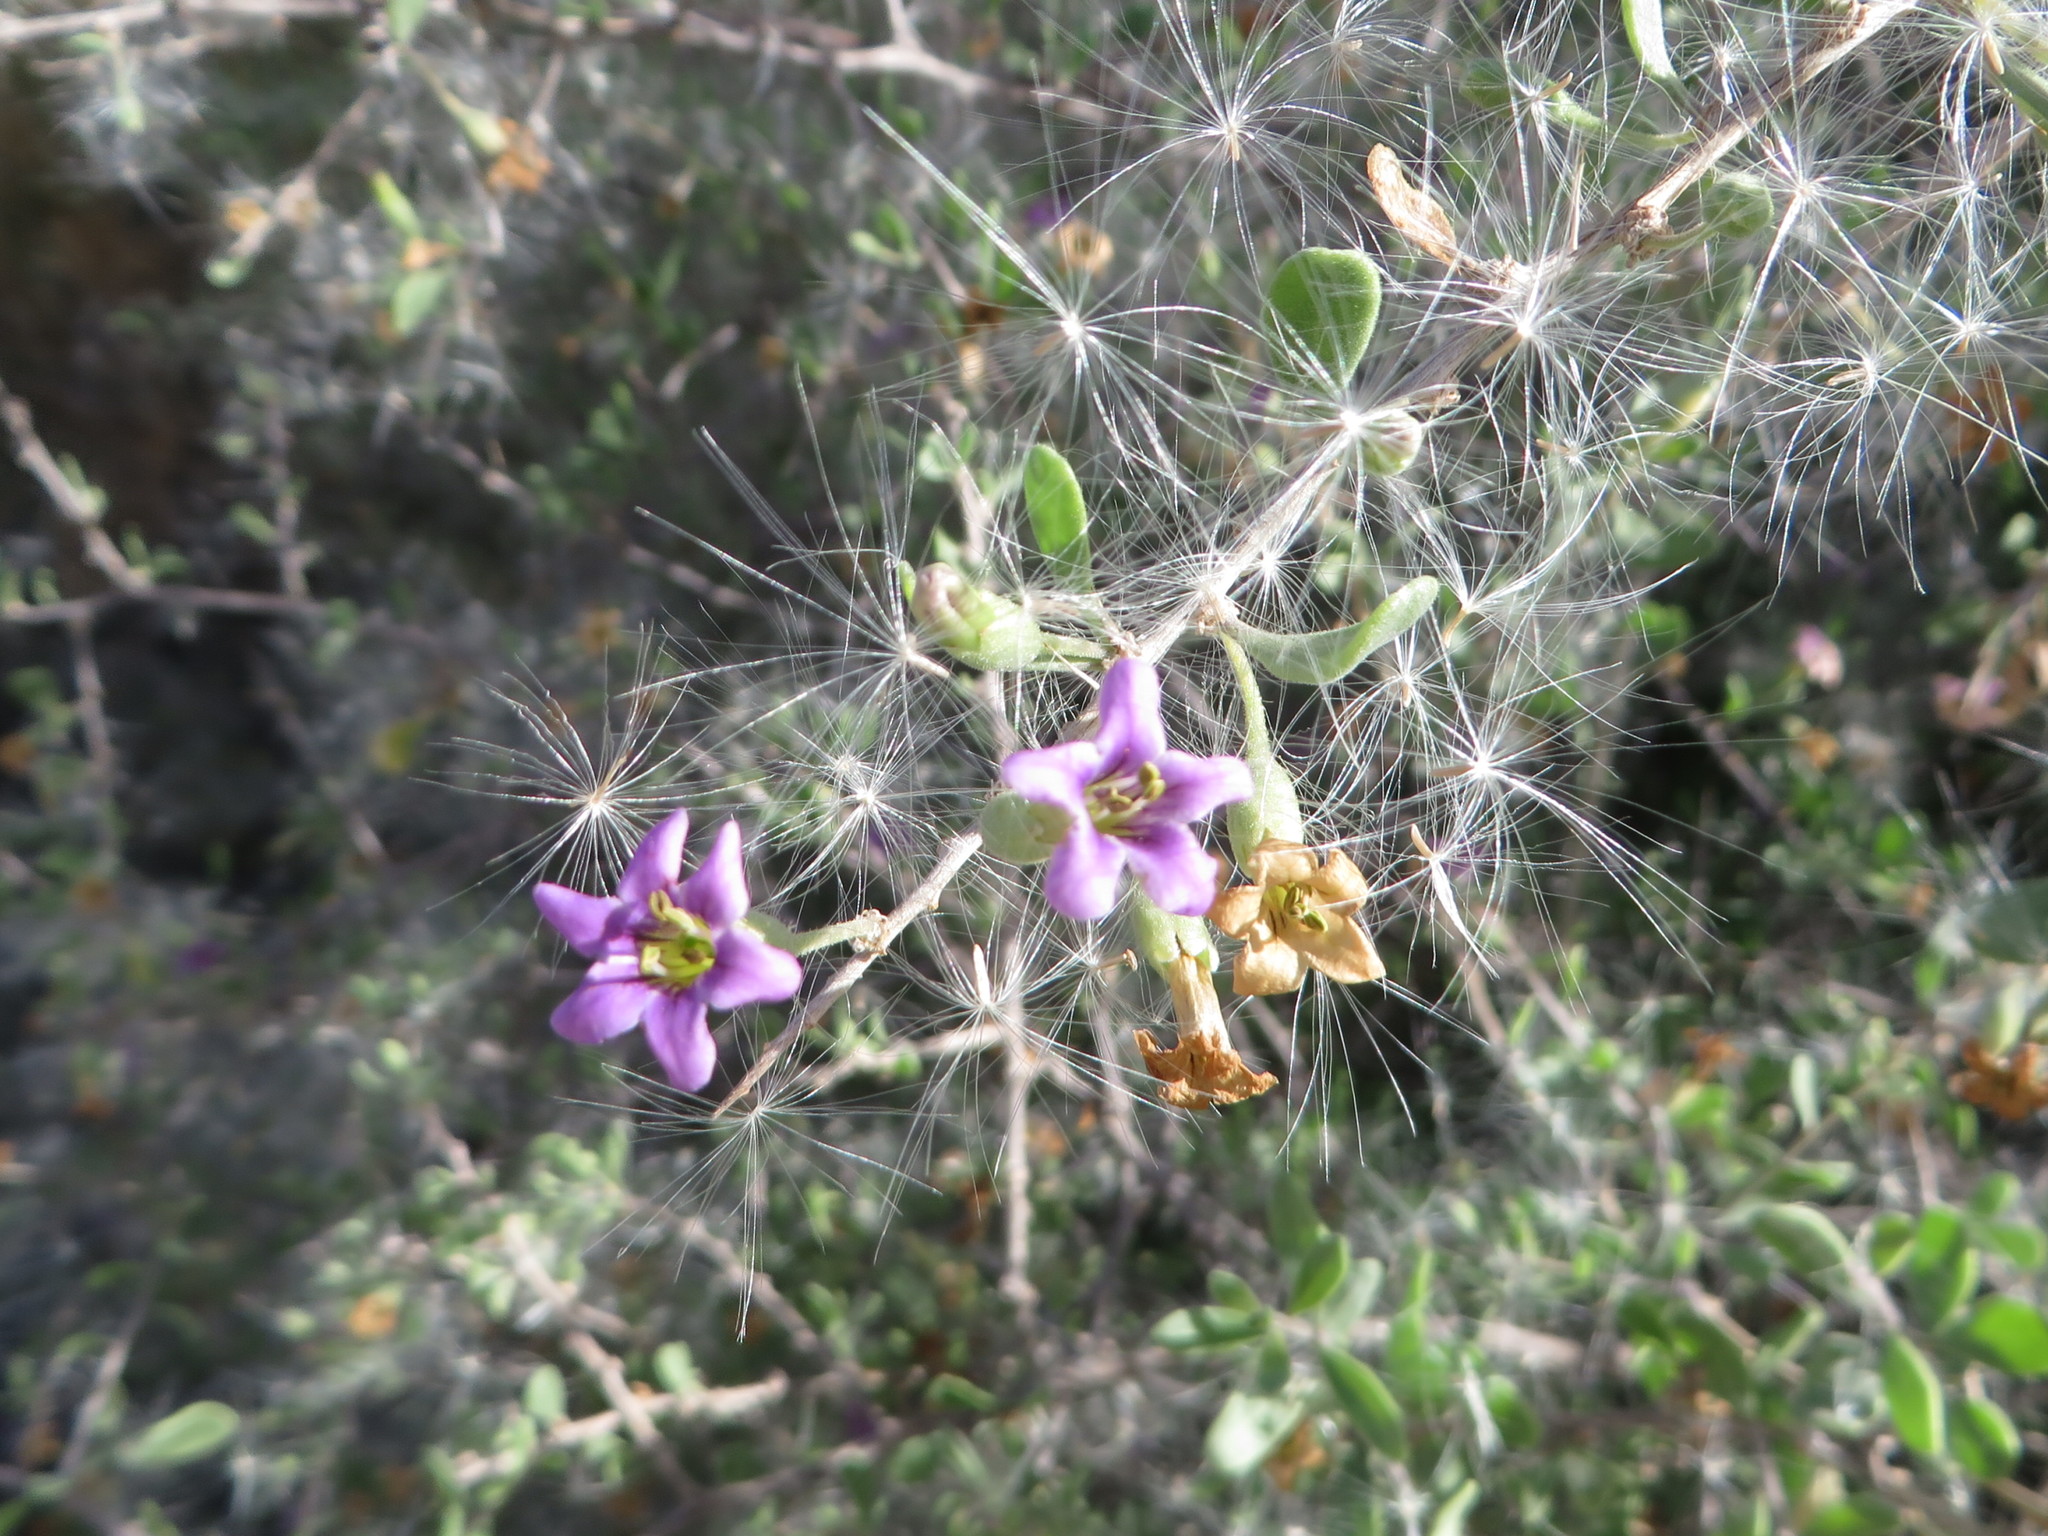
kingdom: Plantae
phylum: Tracheophyta
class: Magnoliopsida
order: Solanales
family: Solanaceae
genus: Lycium
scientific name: Lycium fremontii
